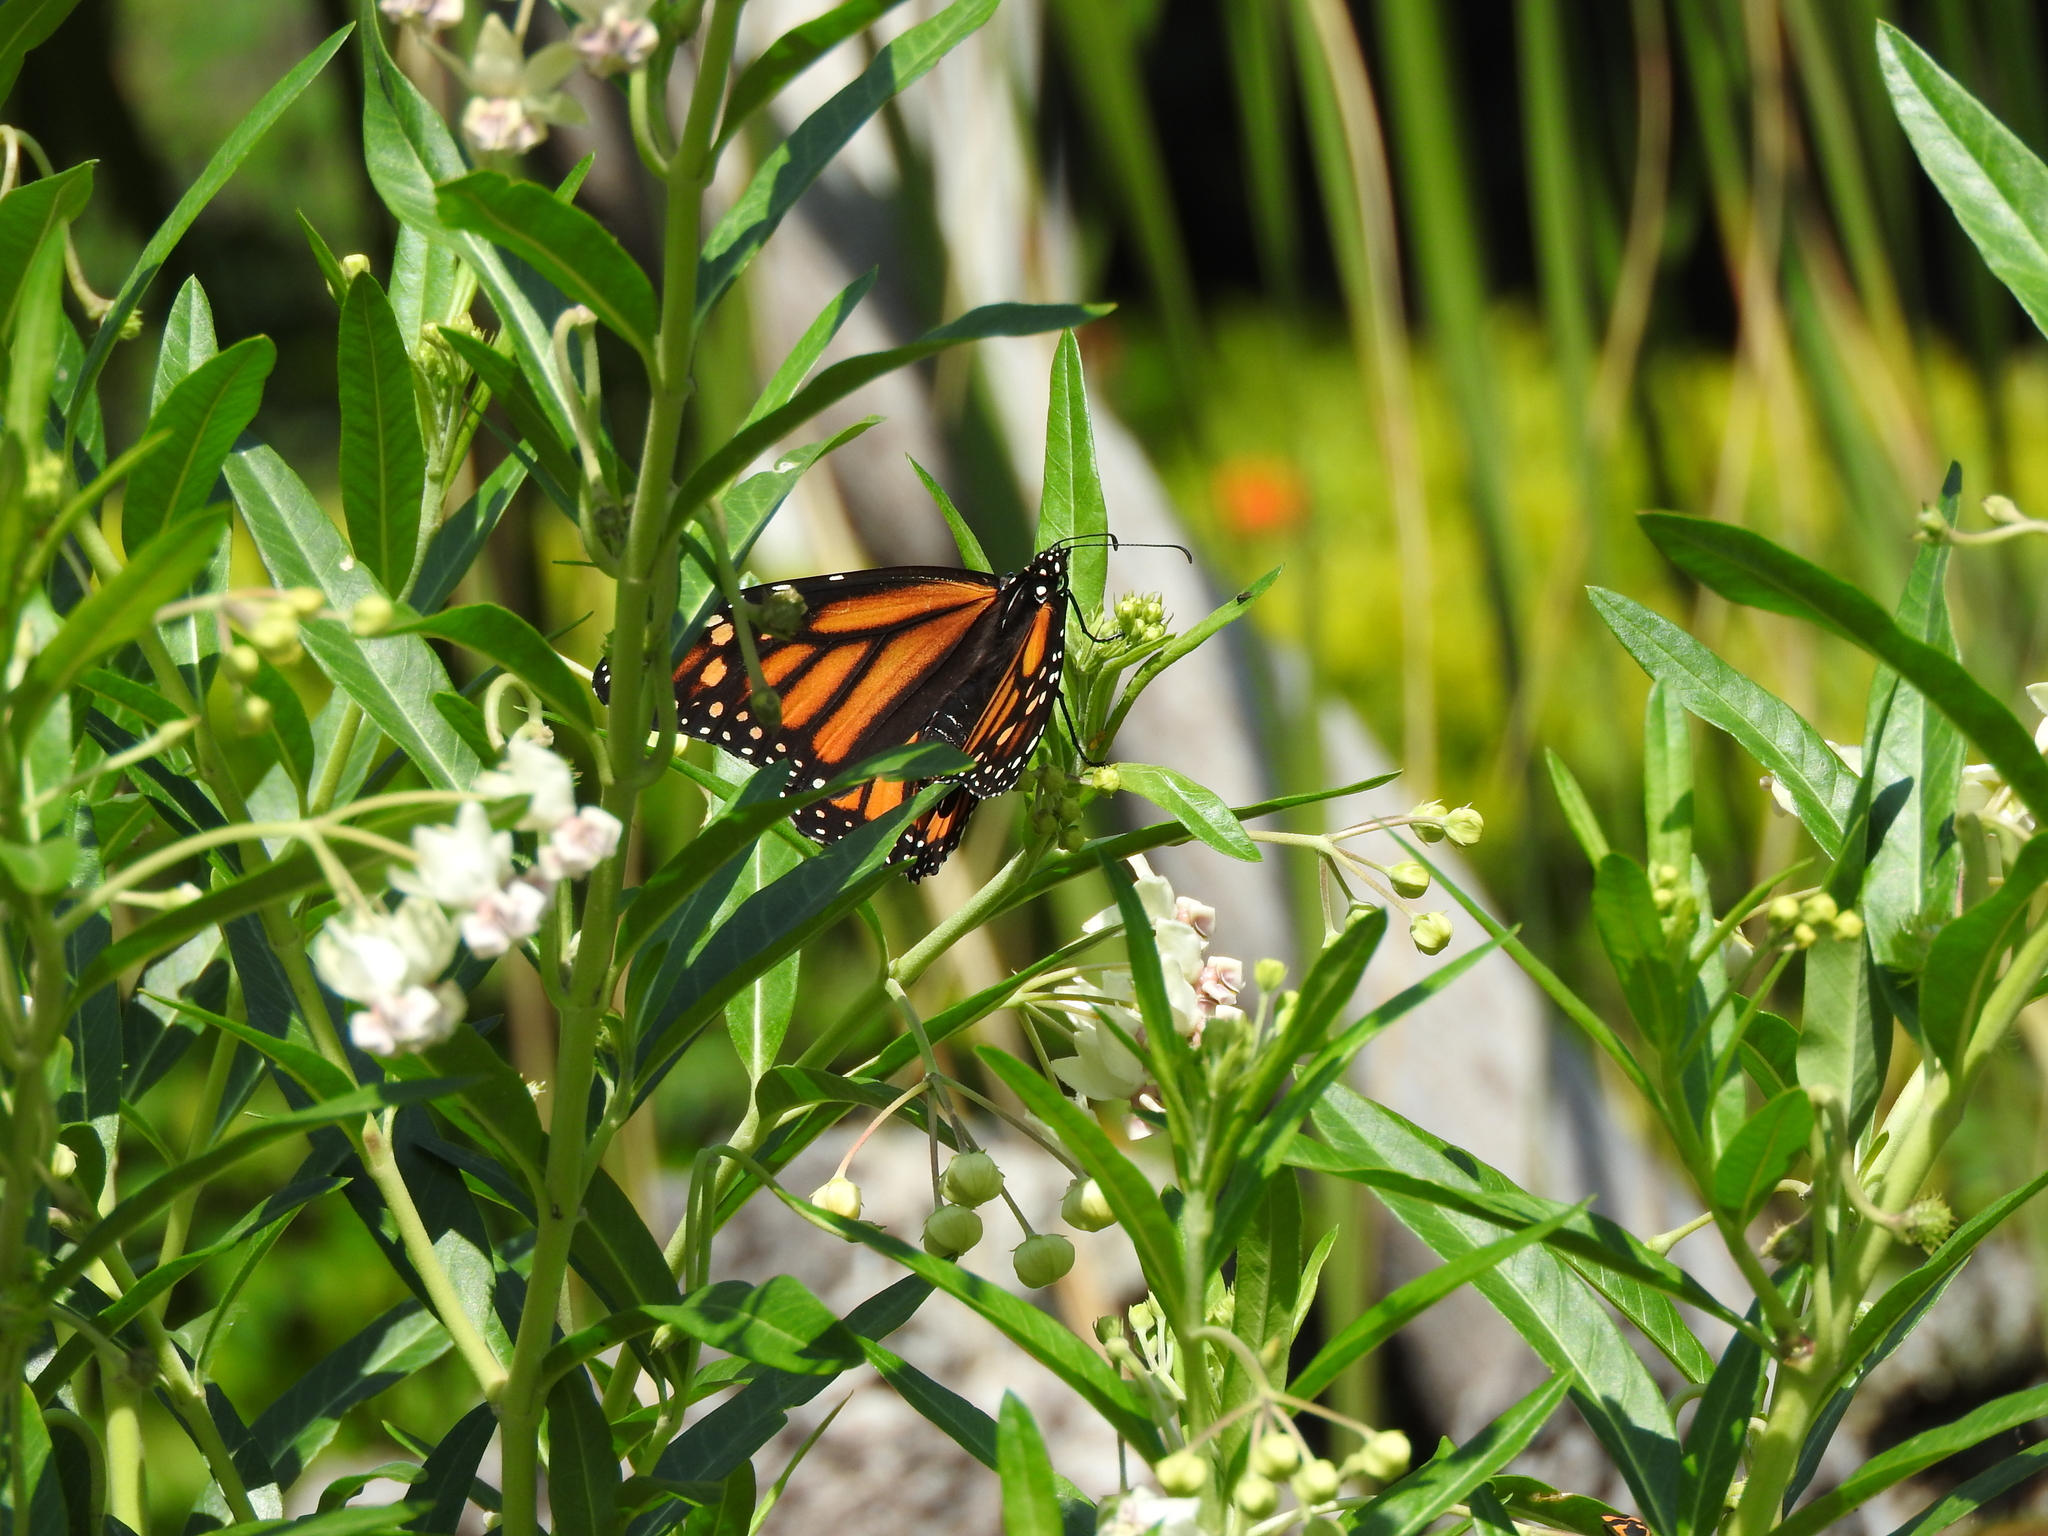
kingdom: Animalia
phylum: Arthropoda
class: Insecta
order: Lepidoptera
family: Nymphalidae
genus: Danaus
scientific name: Danaus plexippus
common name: Monarch
